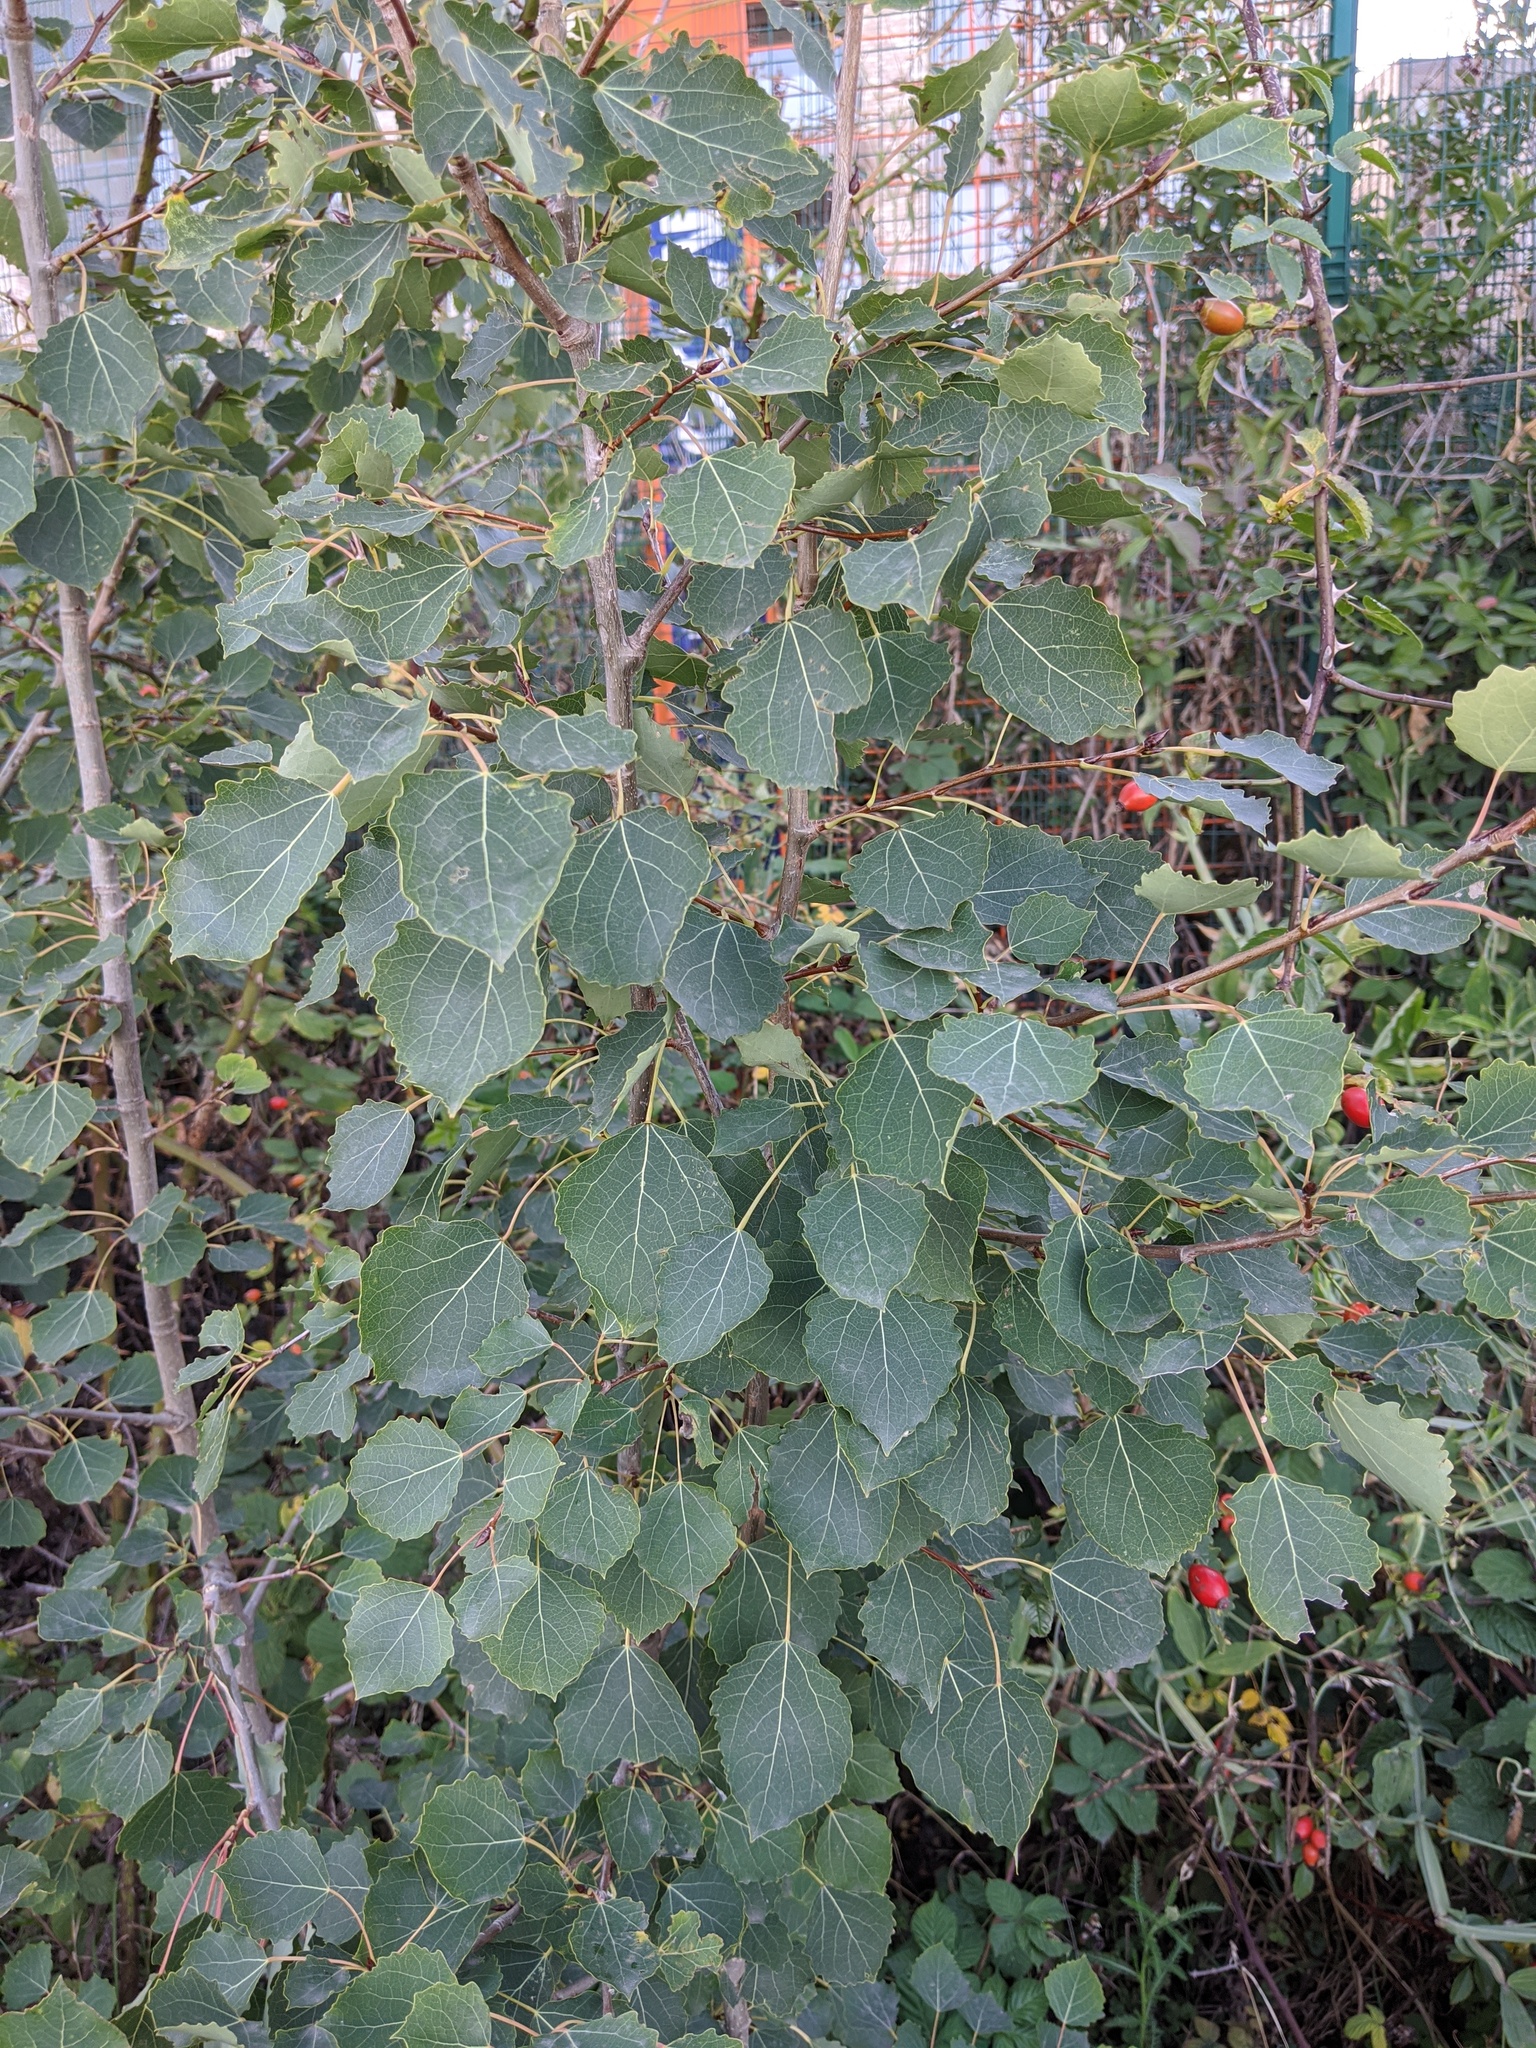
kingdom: Plantae
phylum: Tracheophyta
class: Magnoliopsida
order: Malpighiales
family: Salicaceae
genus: Populus
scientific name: Populus tremula
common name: European aspen
